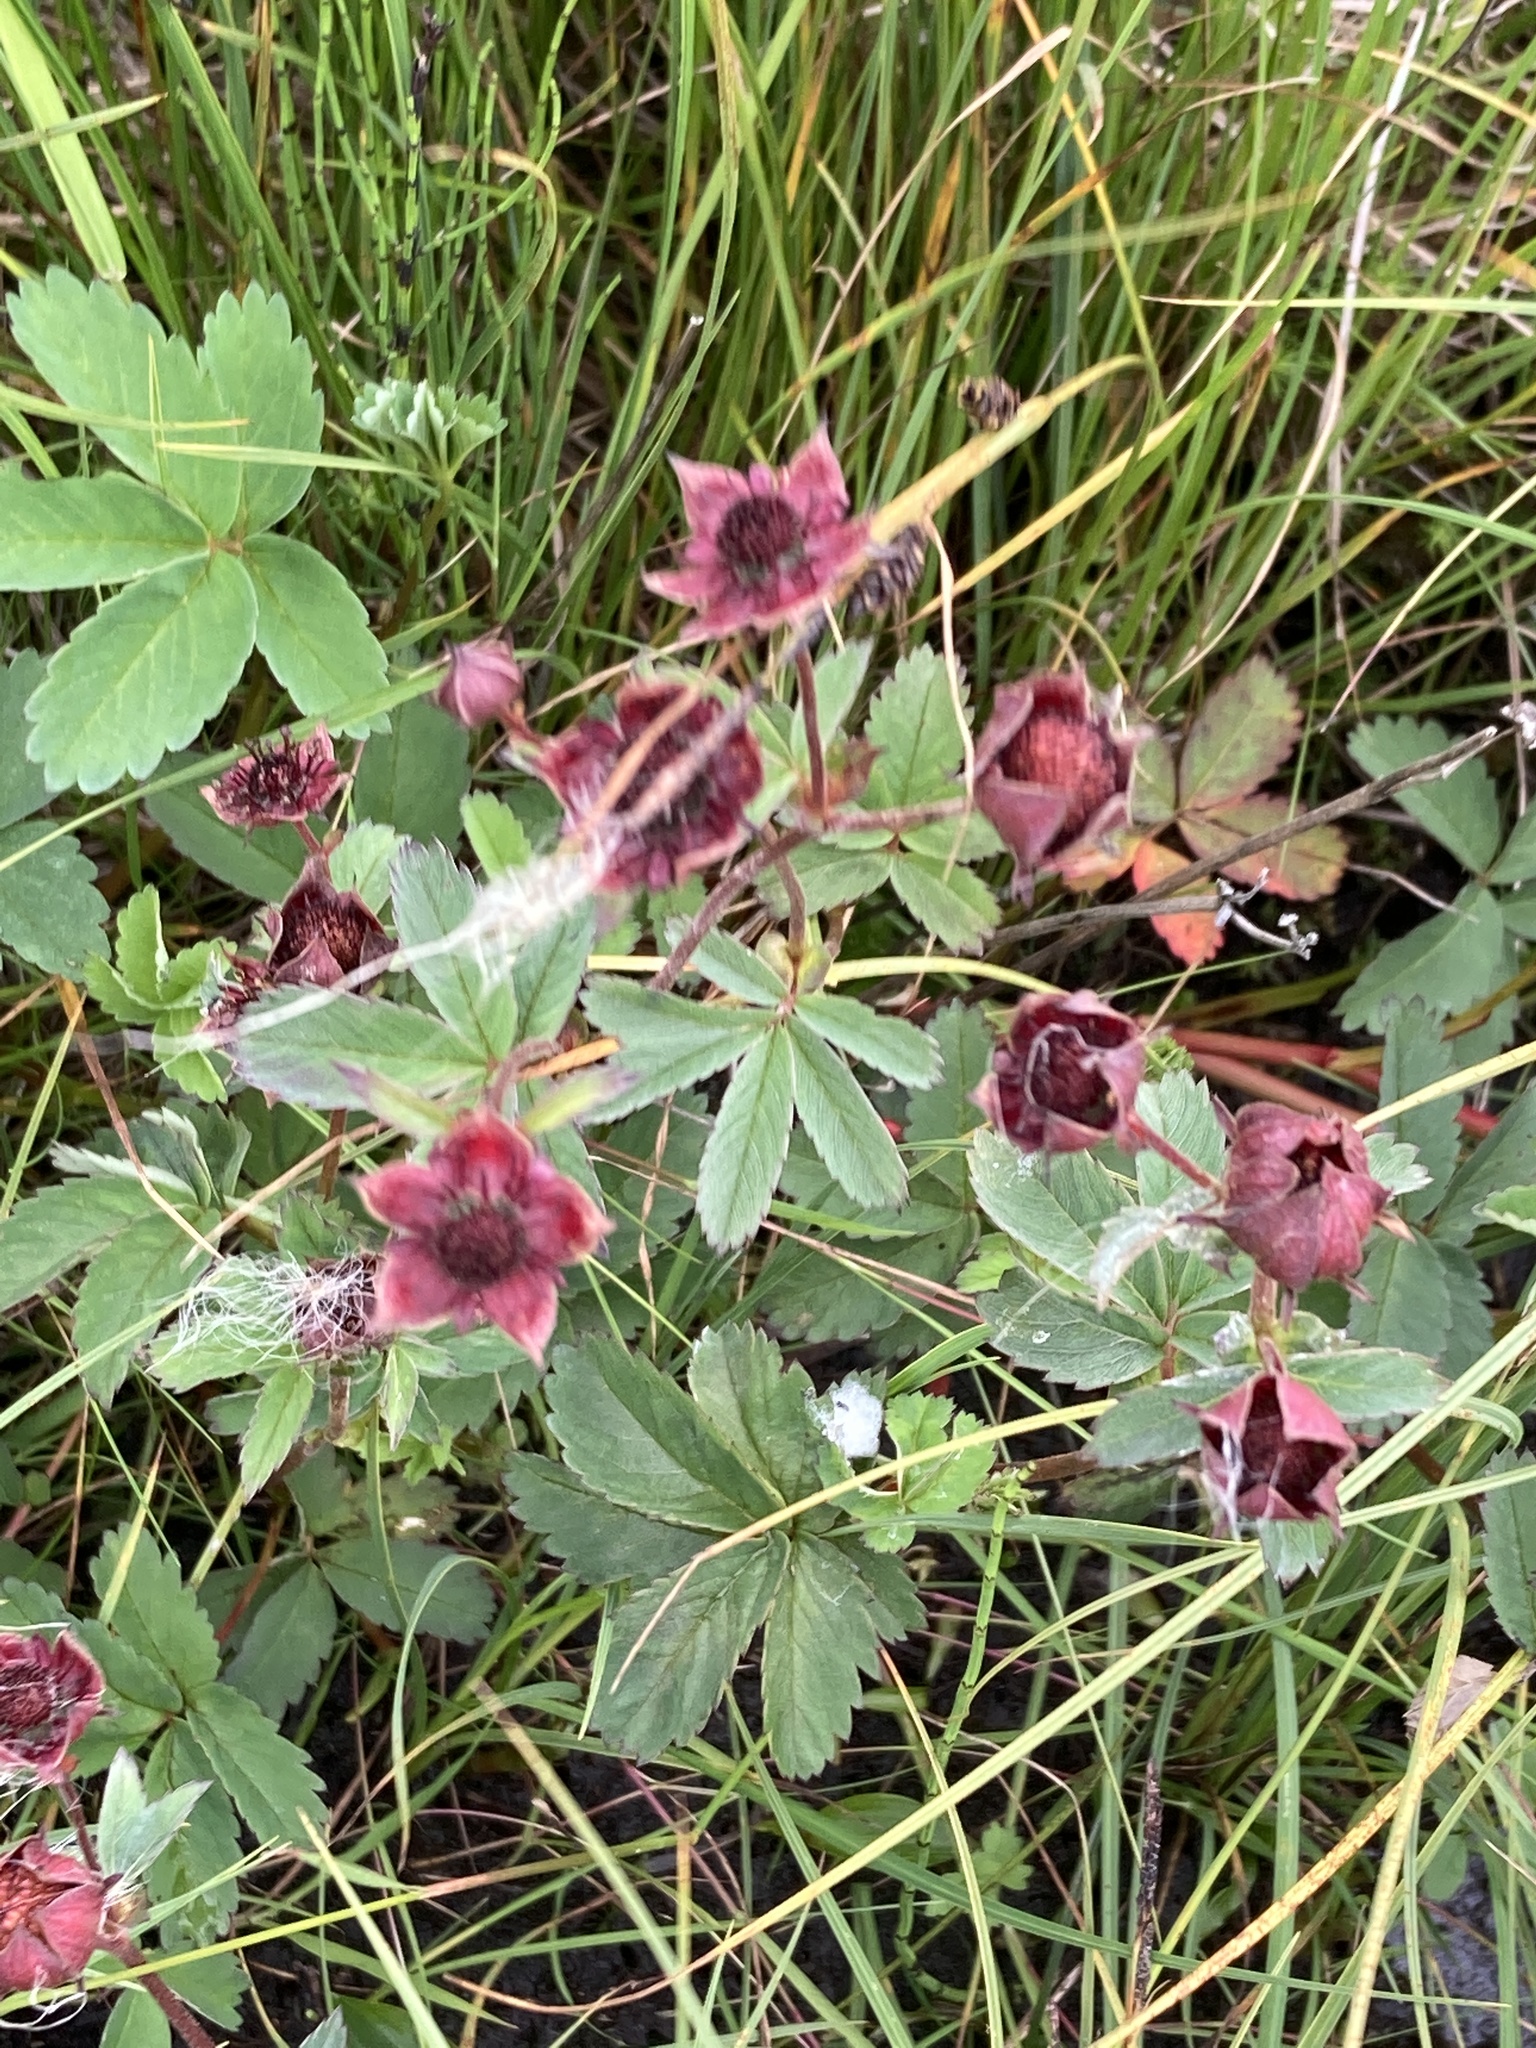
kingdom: Plantae
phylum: Tracheophyta
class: Magnoliopsida
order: Rosales
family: Rosaceae
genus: Comarum
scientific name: Comarum palustre
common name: Marsh cinquefoil
